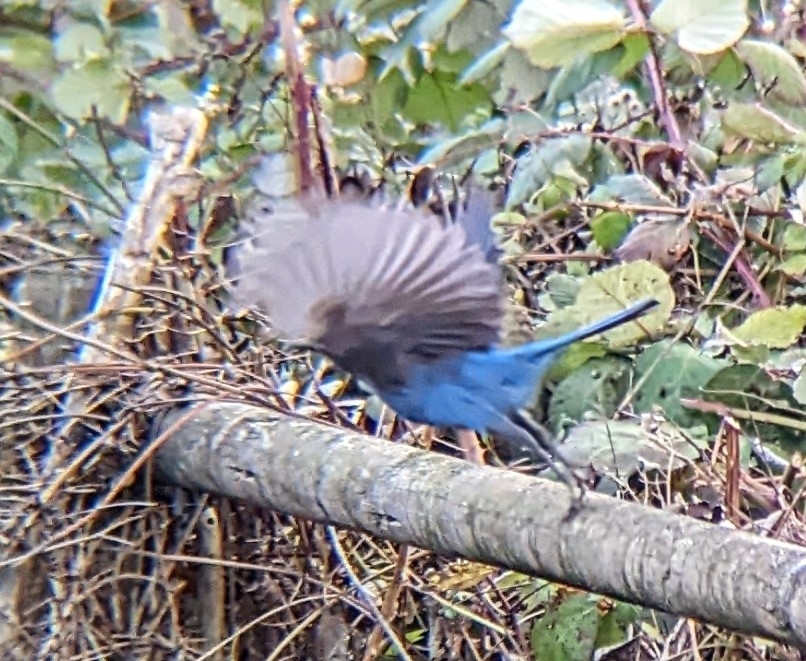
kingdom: Animalia
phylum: Chordata
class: Aves
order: Passeriformes
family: Corvidae
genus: Cyanocitta
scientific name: Cyanocitta stelleri
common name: Steller's jay
